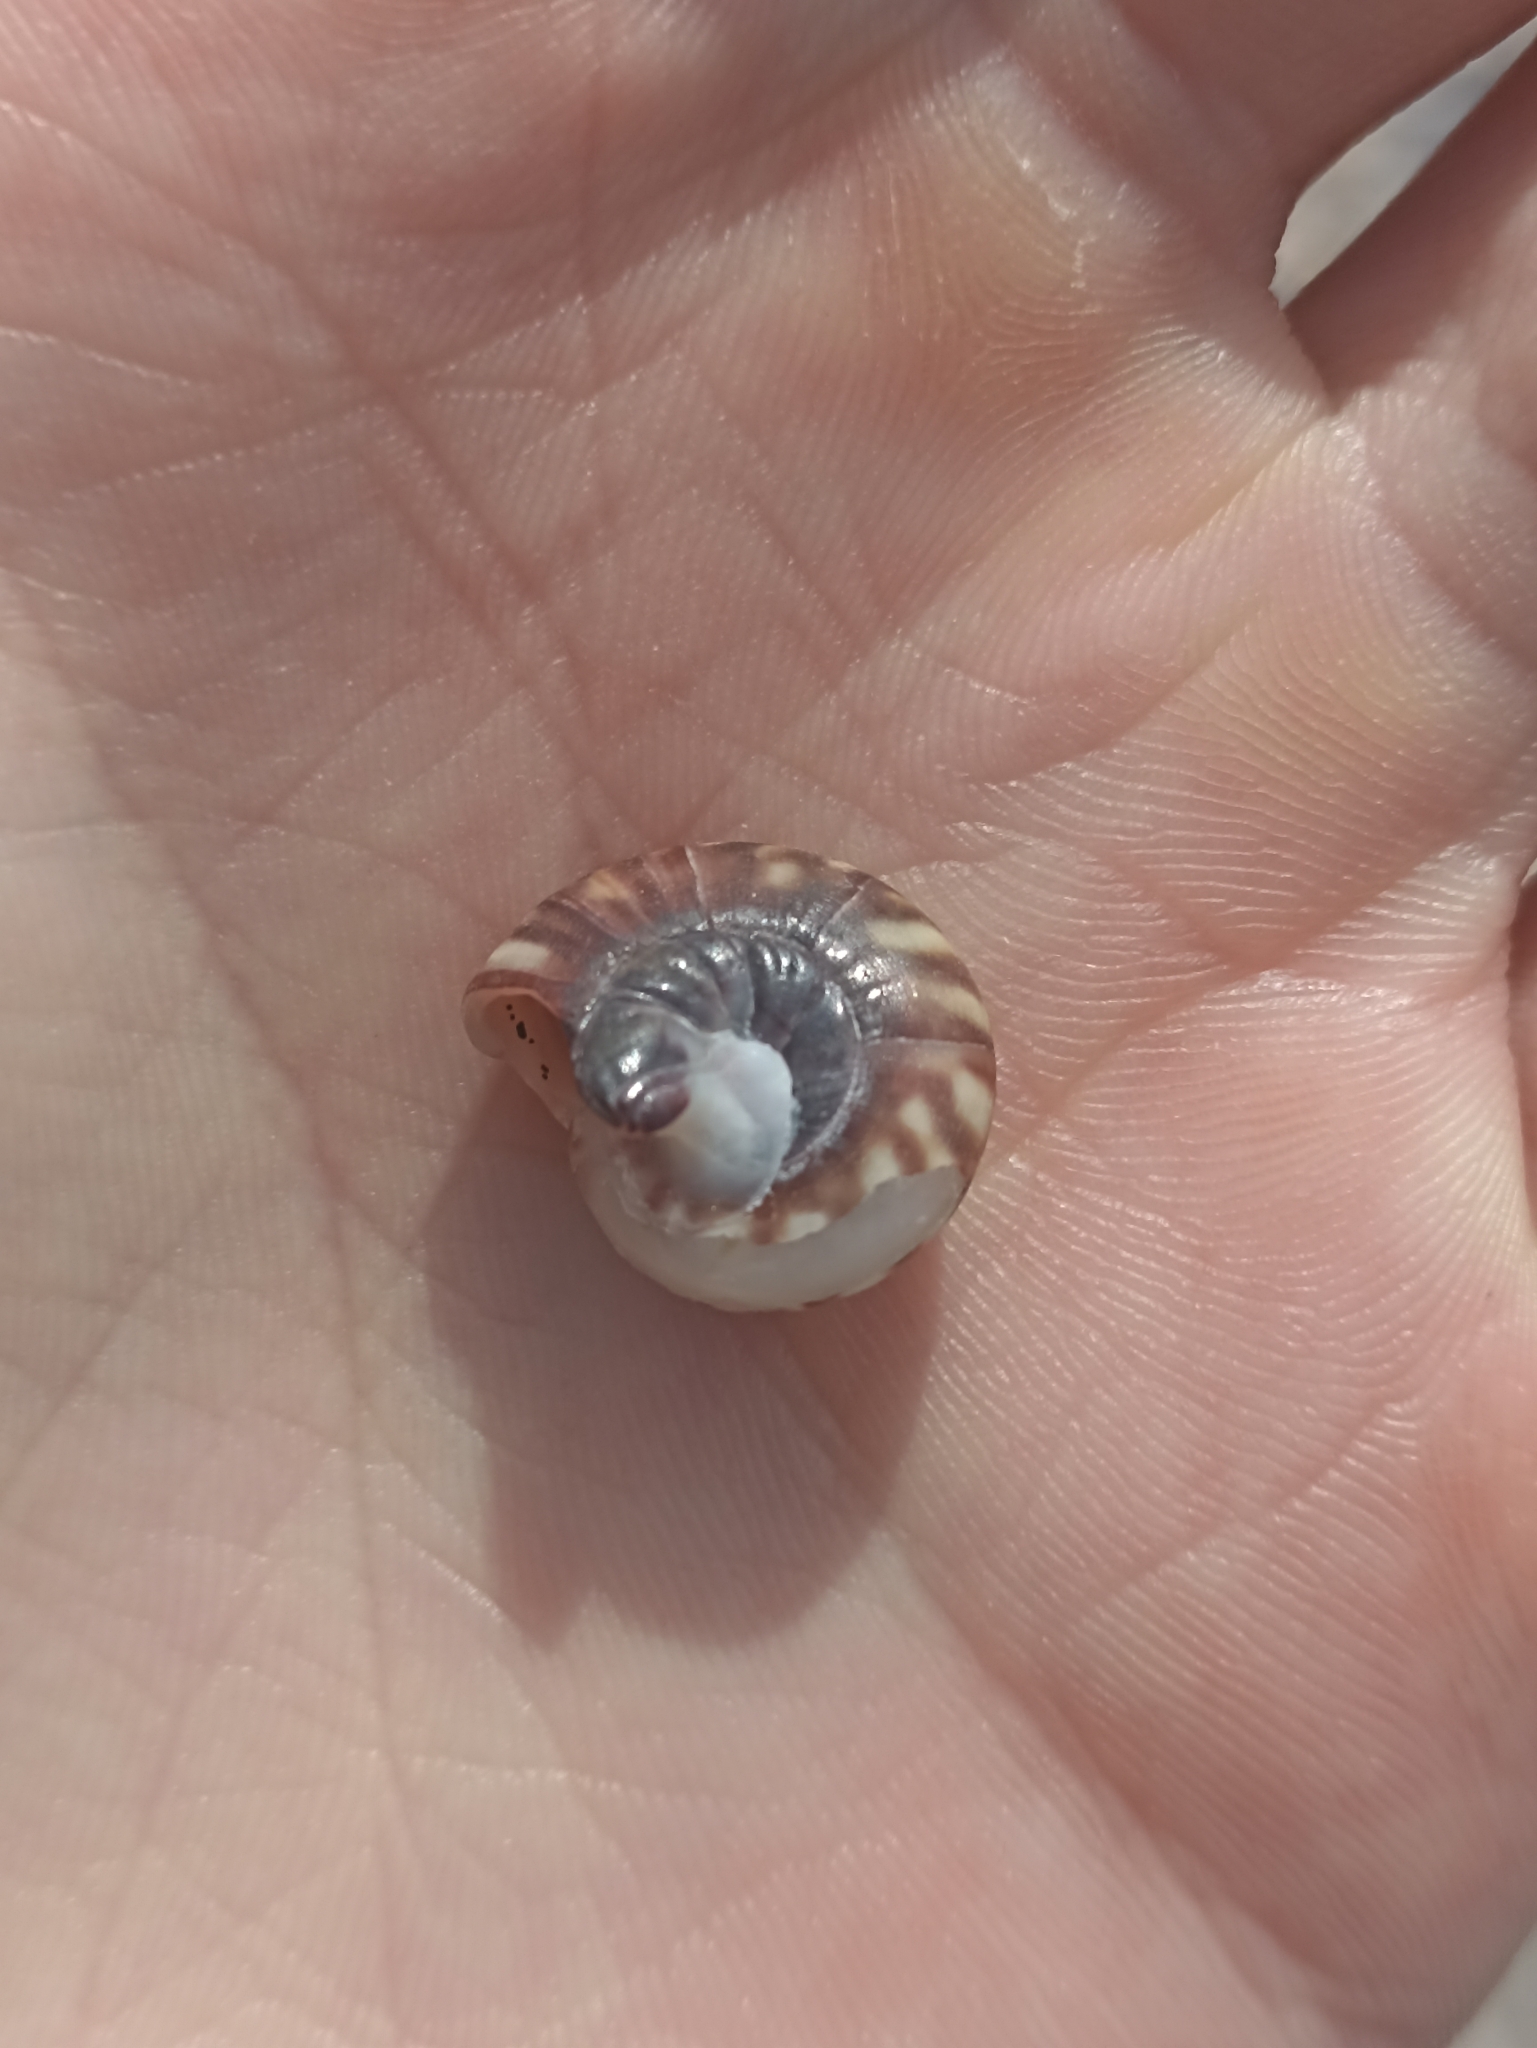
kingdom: Animalia
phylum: Mollusca
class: Gastropoda
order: Trochida
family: Trochidae
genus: Zethalia
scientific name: Zethalia zelandica
